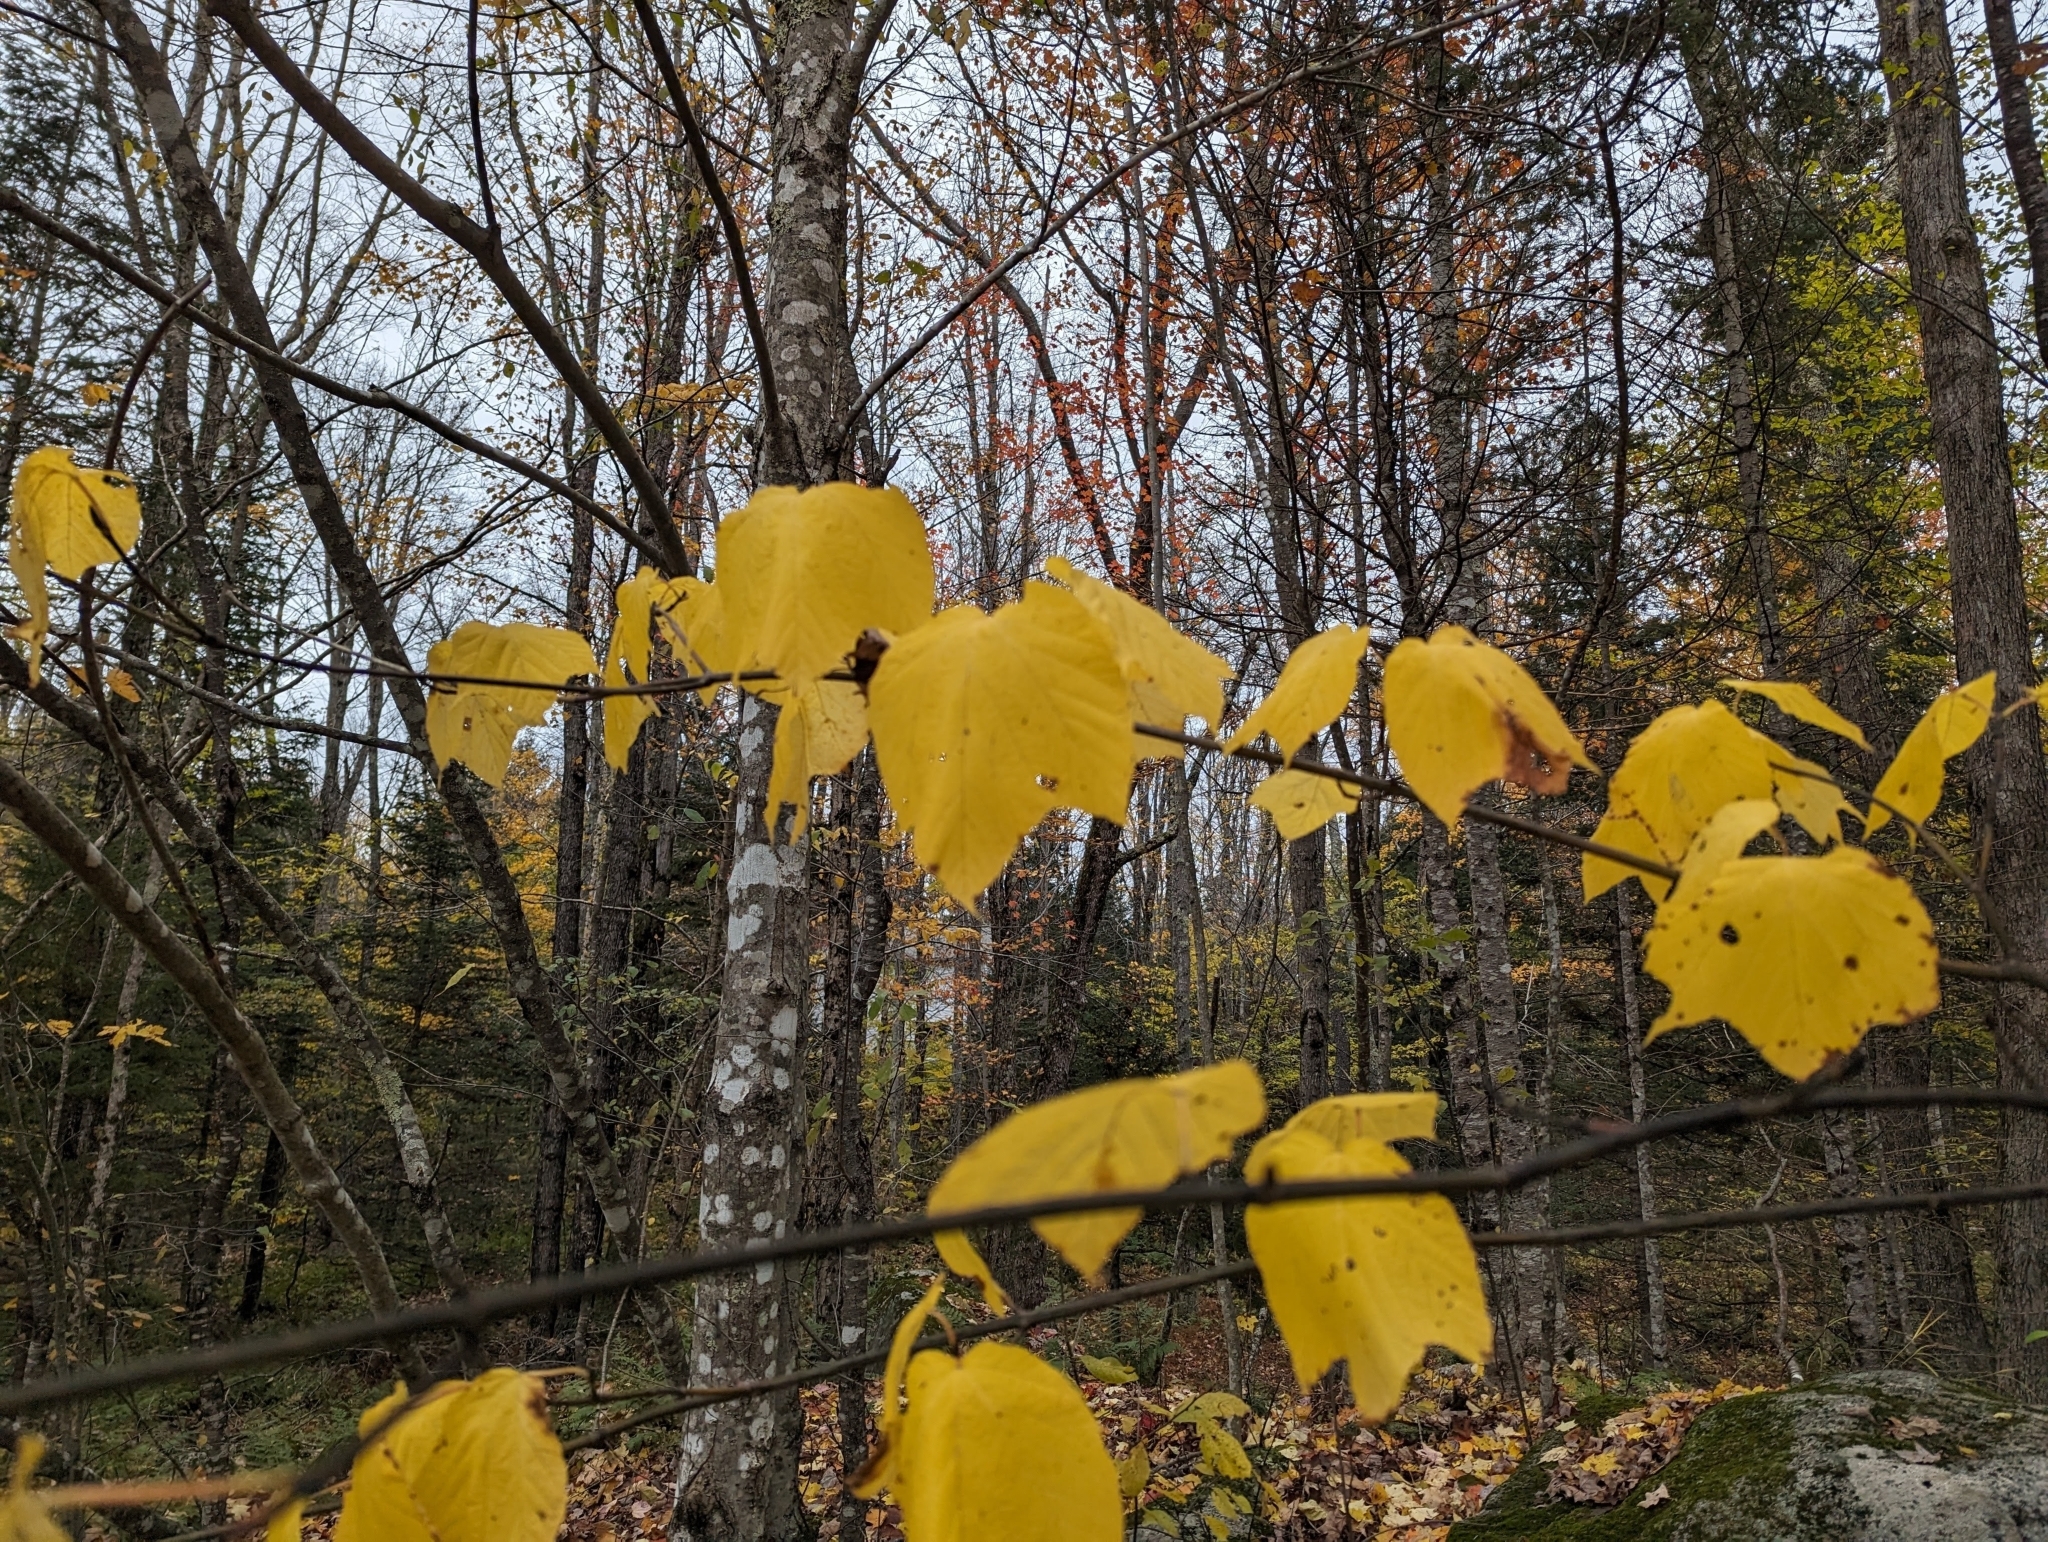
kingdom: Plantae
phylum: Tracheophyta
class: Magnoliopsida
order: Sapindales
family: Sapindaceae
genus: Acer
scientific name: Acer pensylvanicum
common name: Moosewood
